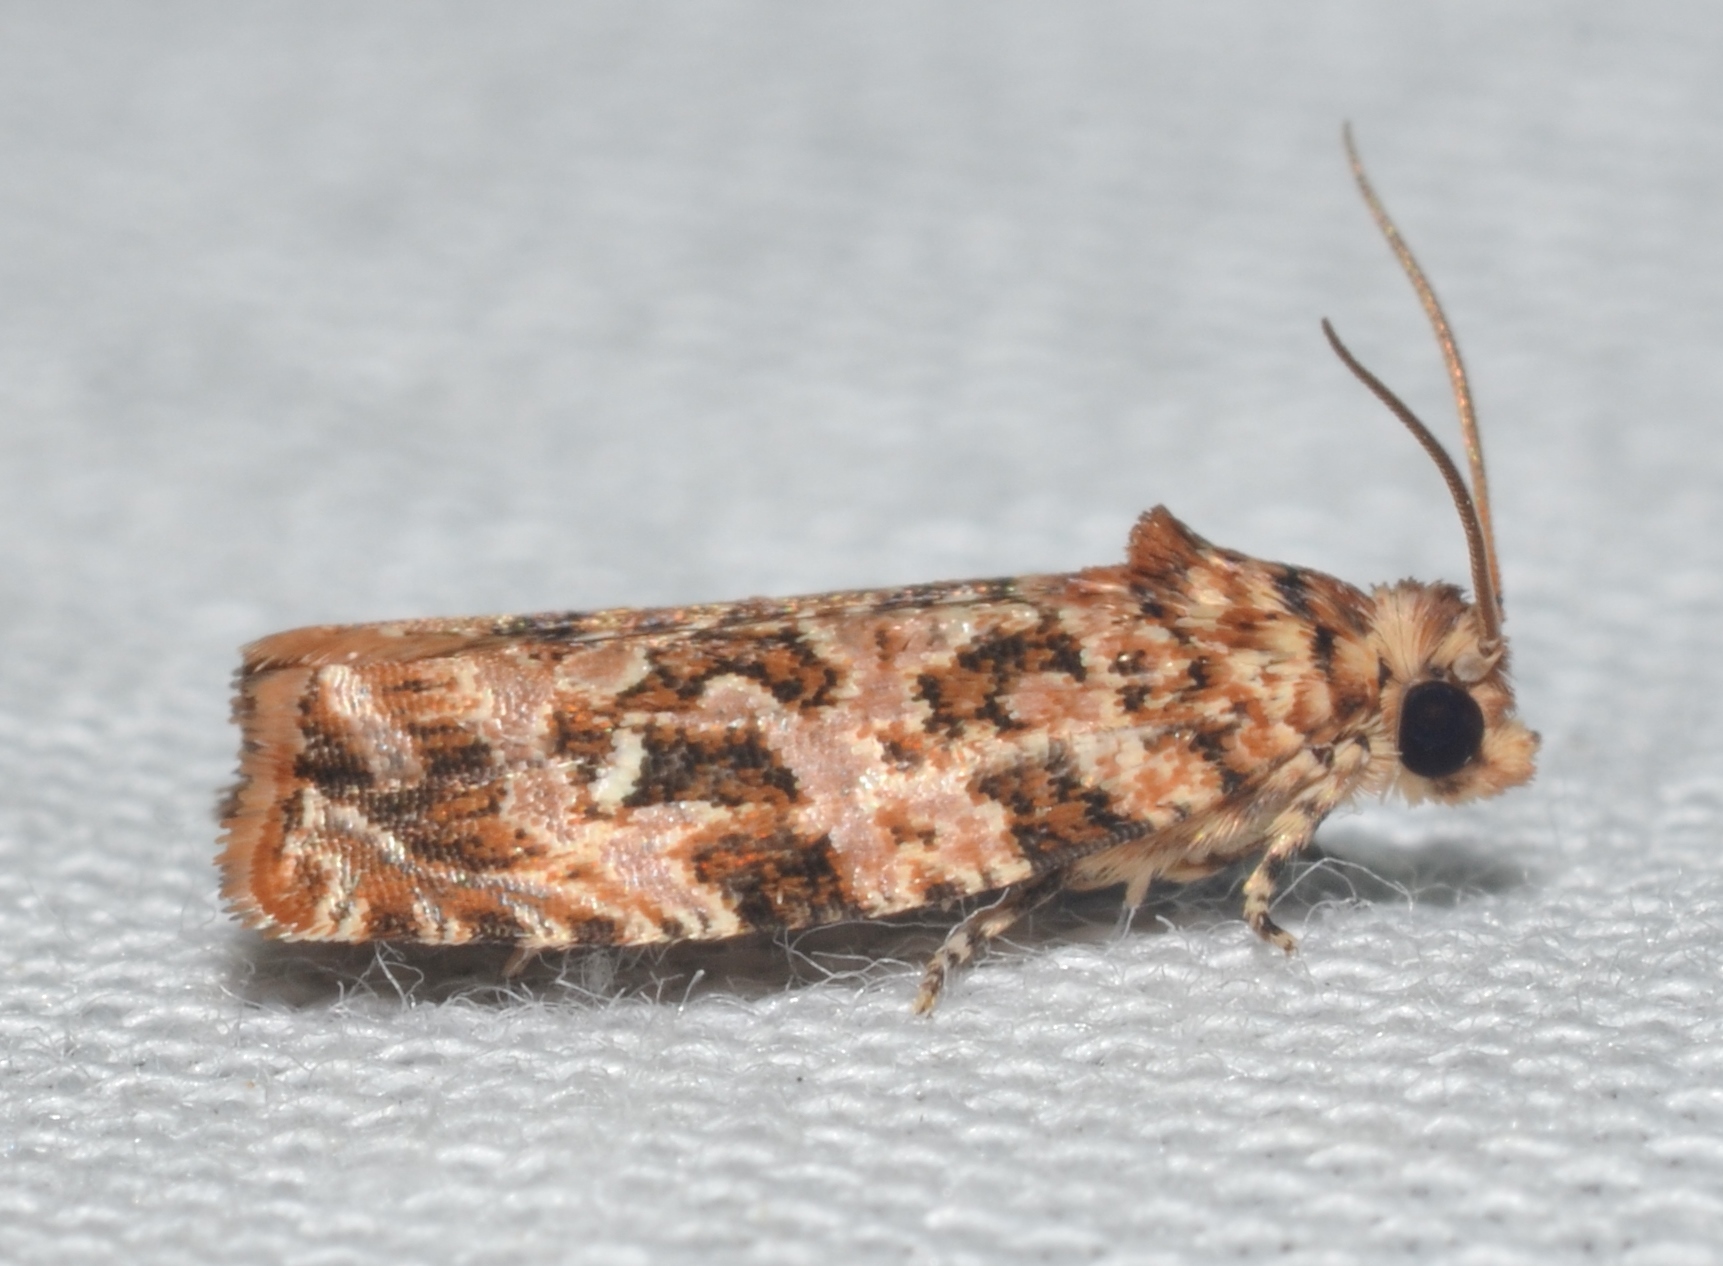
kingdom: Animalia
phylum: Arthropoda
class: Insecta
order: Lepidoptera
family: Tortricidae
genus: Phaecasiophora
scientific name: Phaecasiophora niveiguttana
